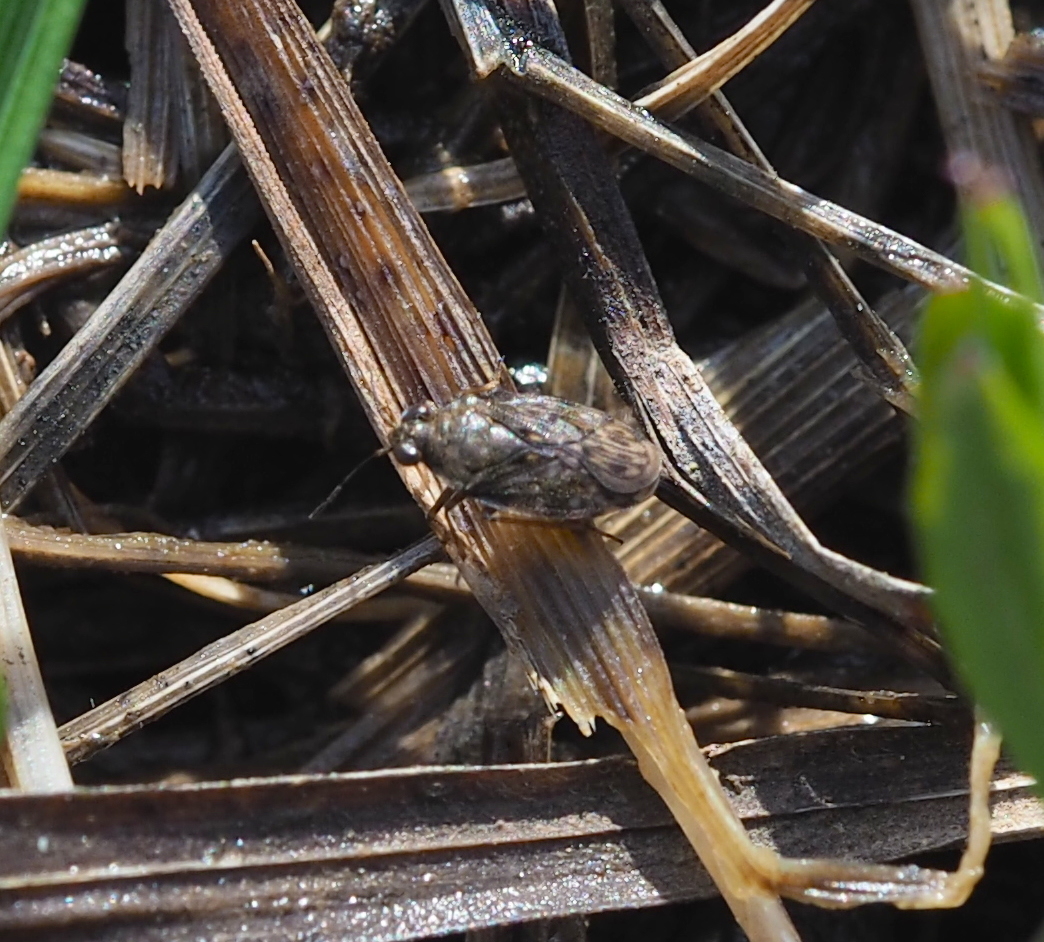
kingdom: Animalia
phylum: Arthropoda
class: Insecta
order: Hemiptera
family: Saldidae
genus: Saldula
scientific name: Saldula saltatoria
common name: Common shorebug
